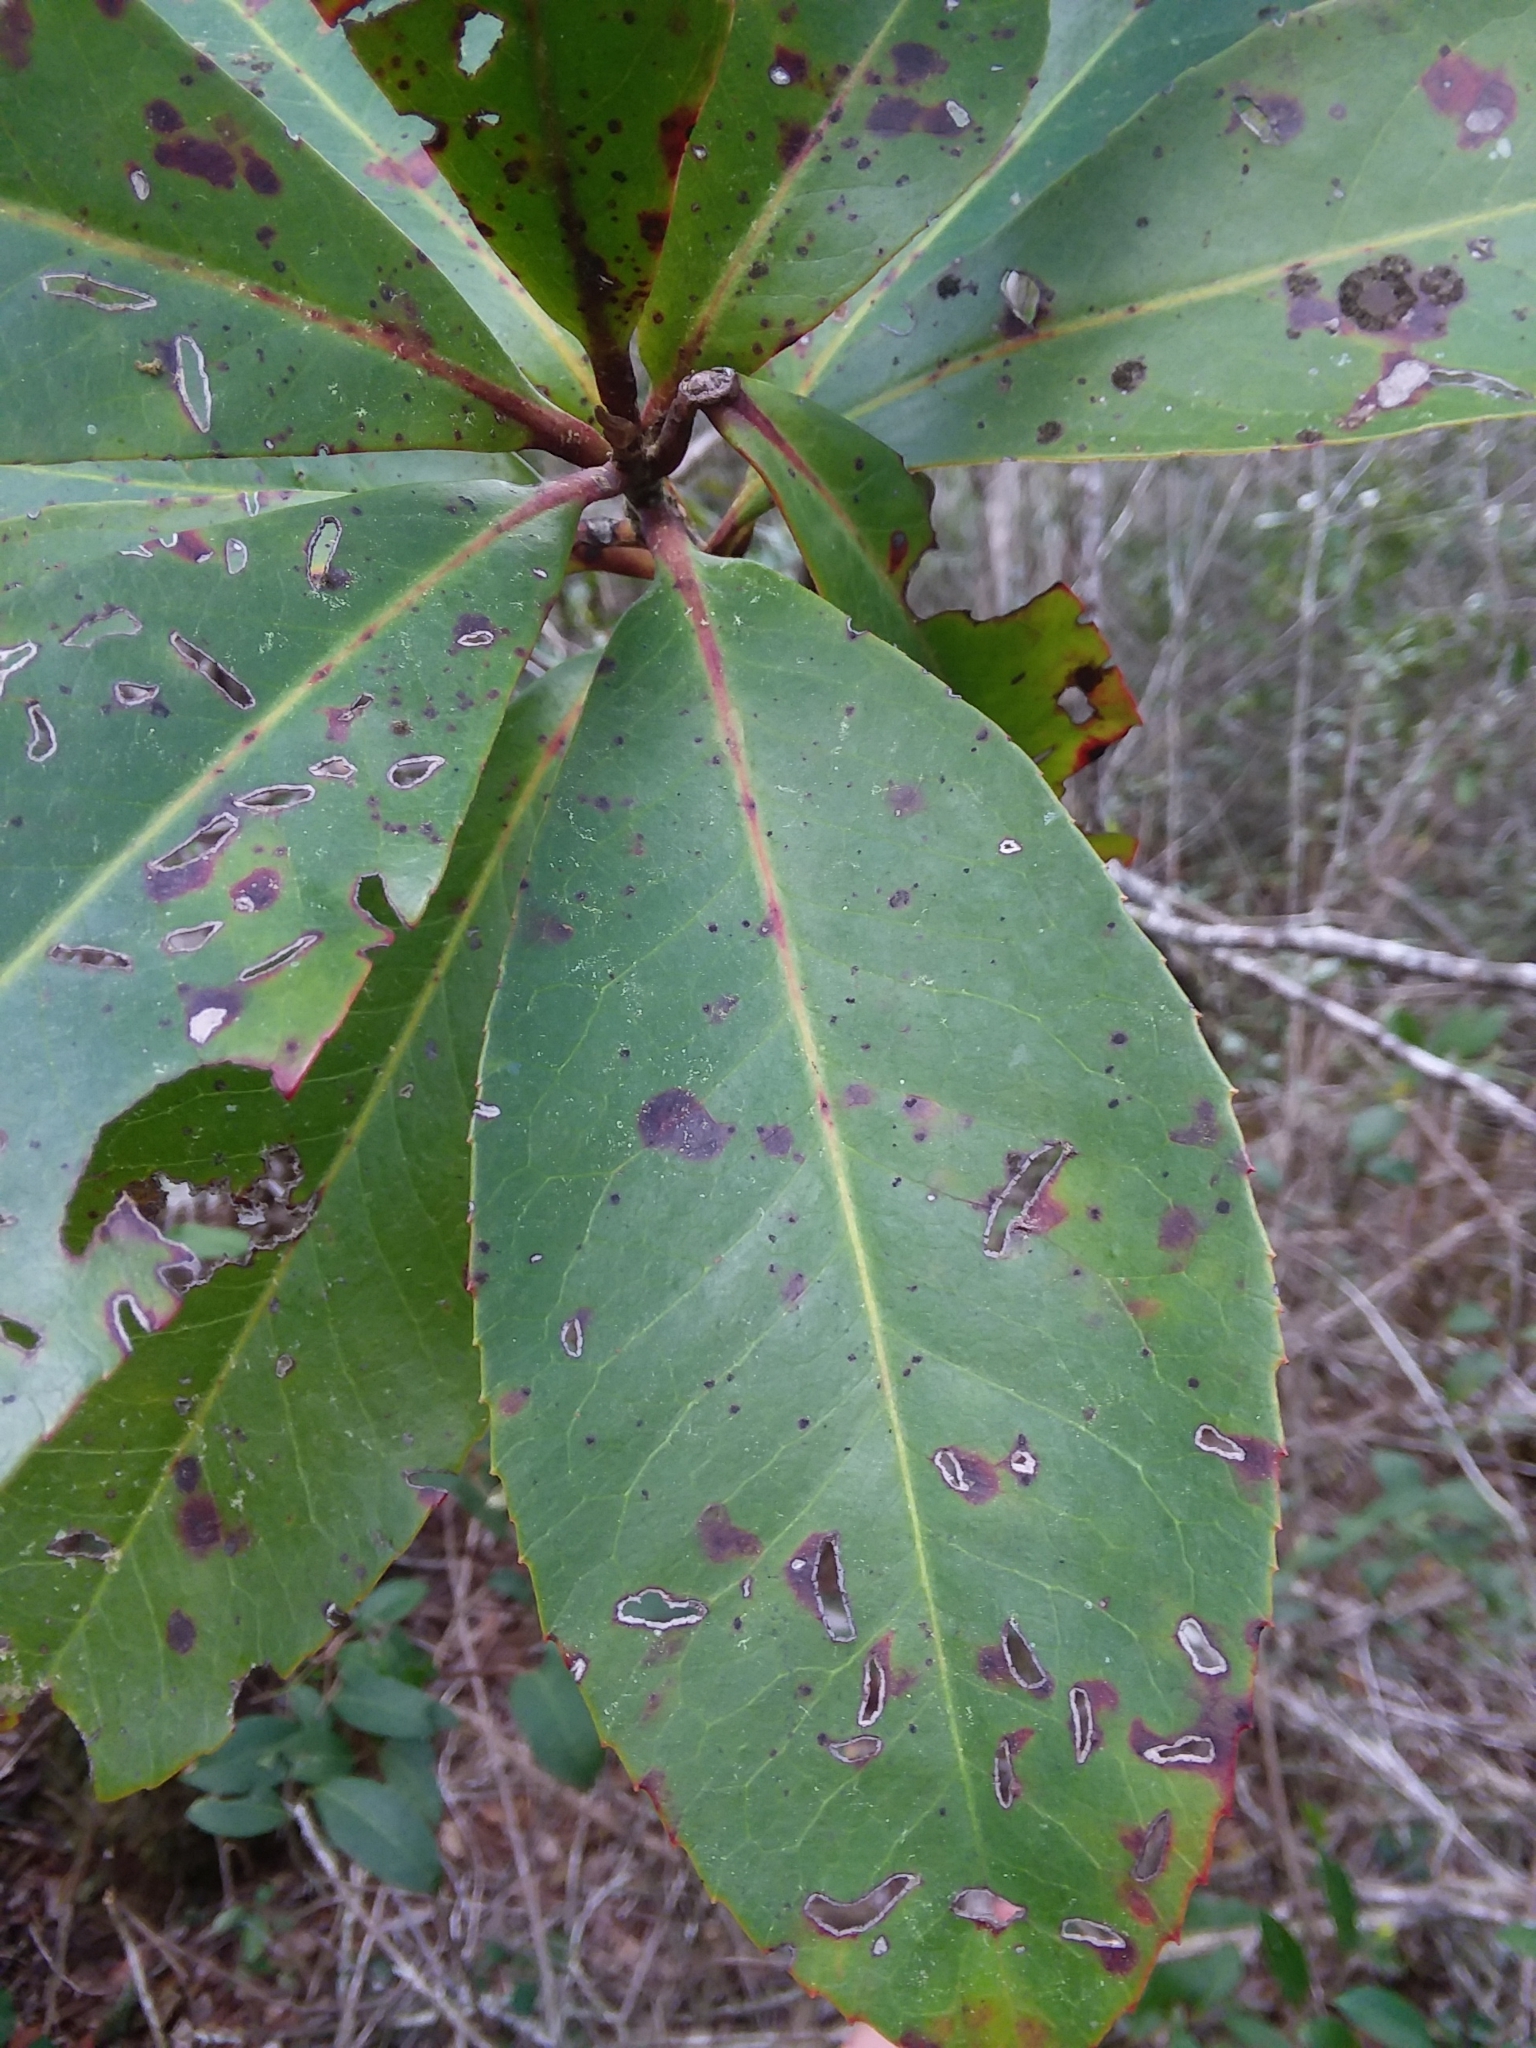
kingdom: Plantae
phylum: Tracheophyta
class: Magnoliopsida
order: Ericales
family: Theaceae
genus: Gordonia
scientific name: Gordonia lasianthus
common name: Loblolly bay
